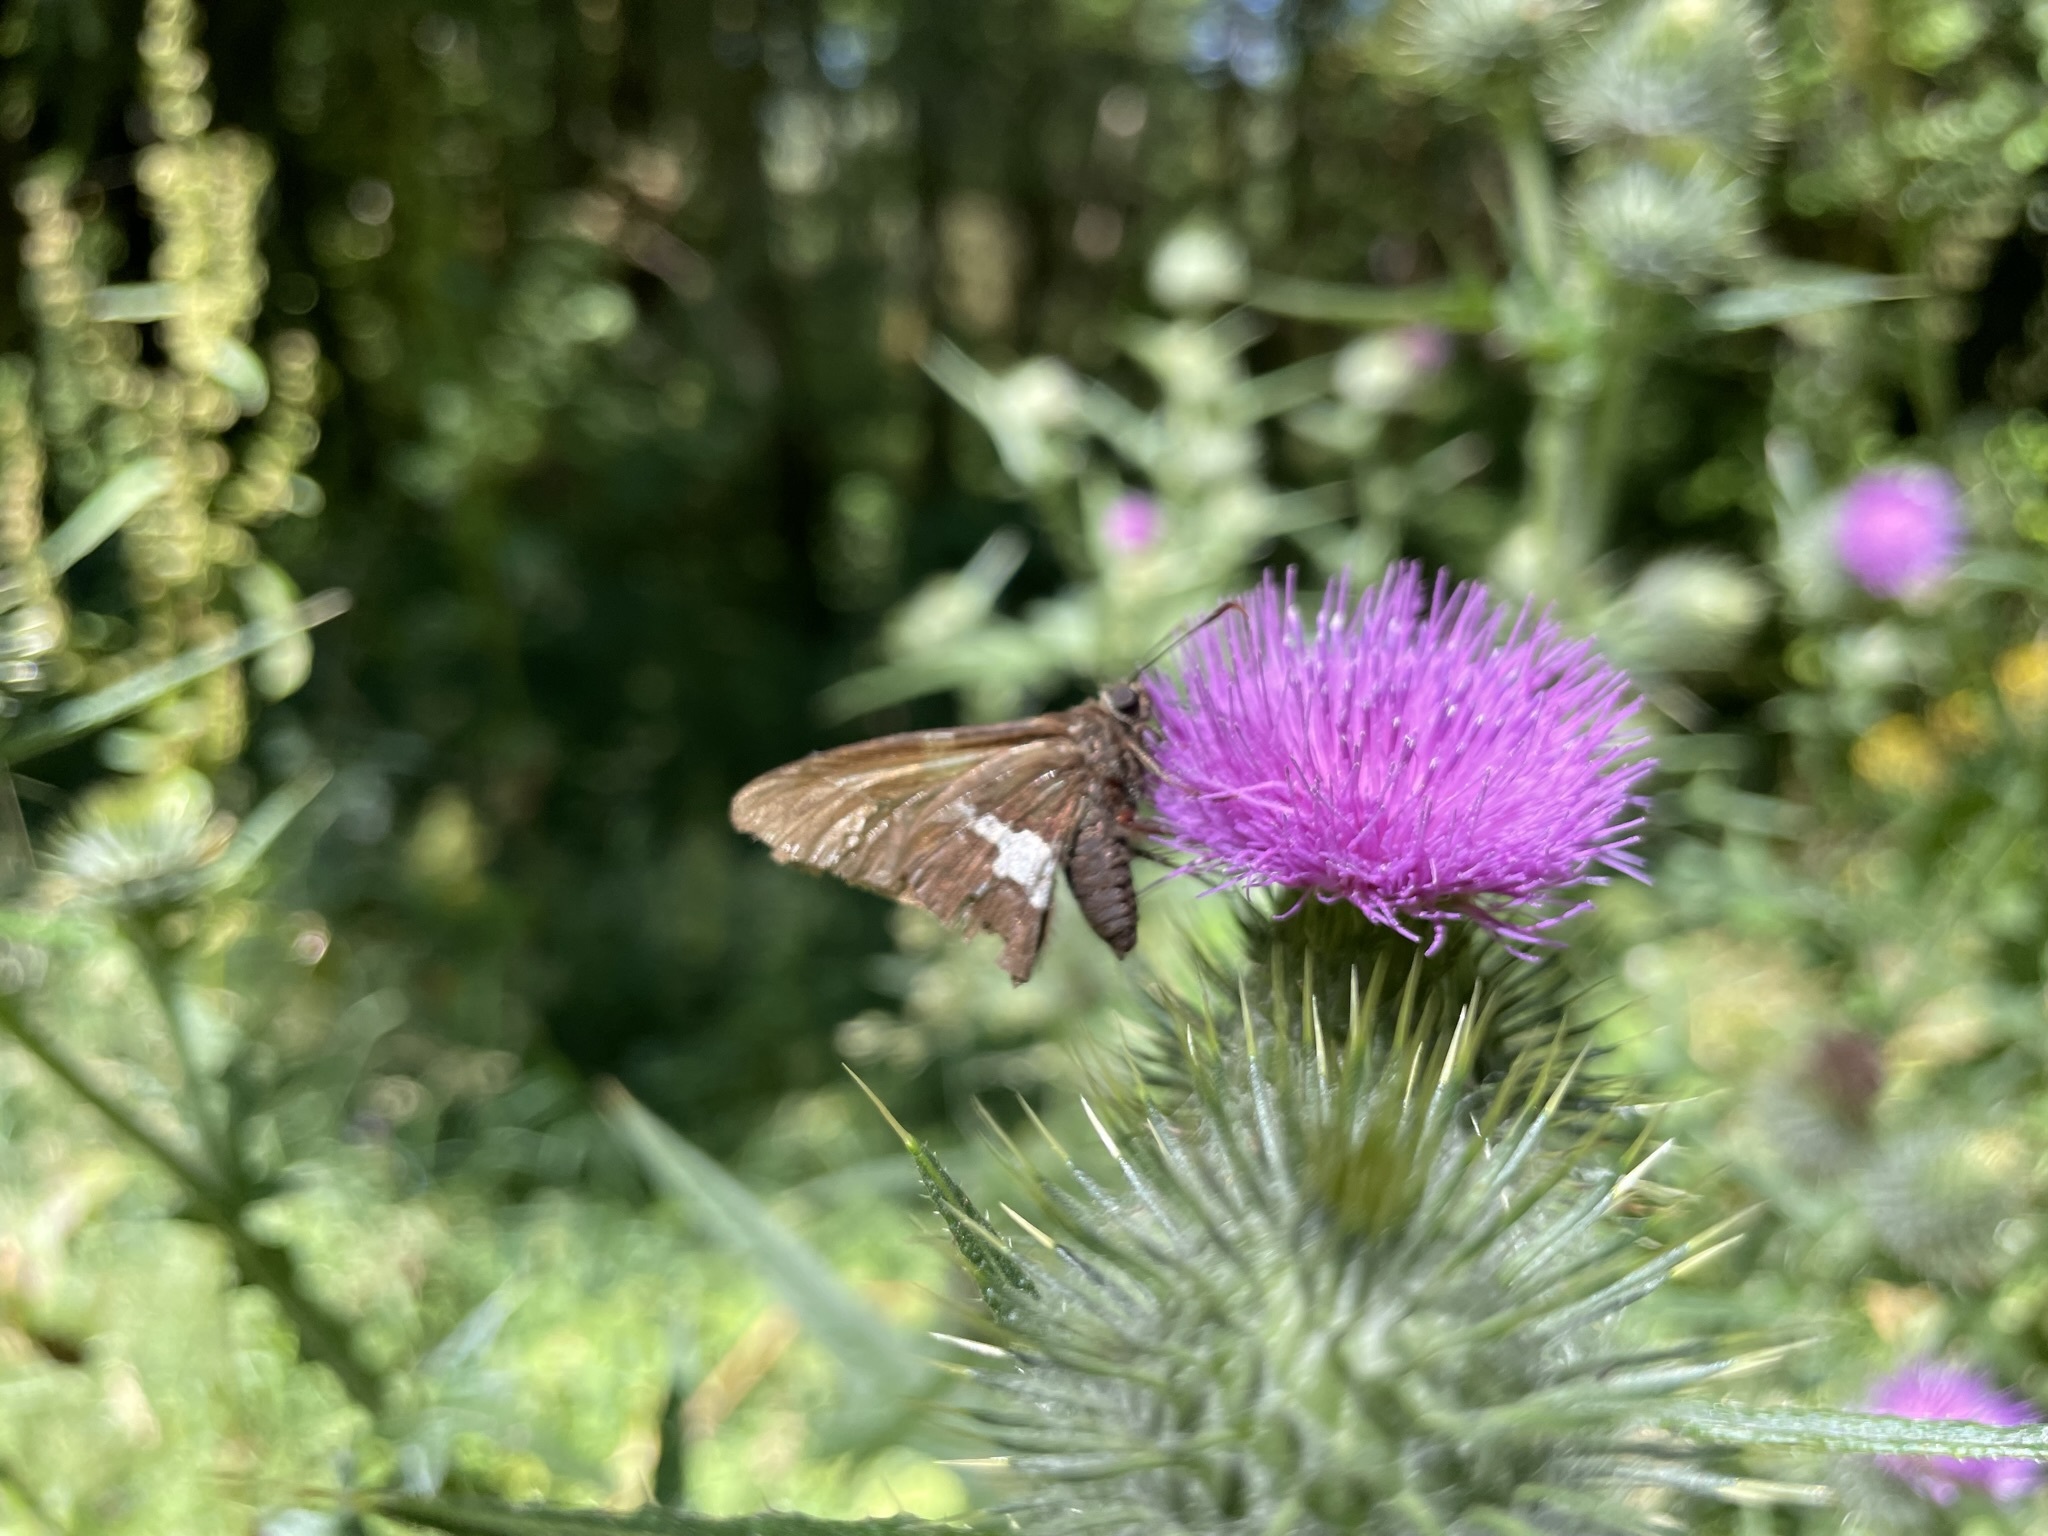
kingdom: Animalia
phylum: Arthropoda
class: Insecta
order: Lepidoptera
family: Hesperiidae
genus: Epargyreus
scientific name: Epargyreus clarus
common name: Silver-spotted skipper
